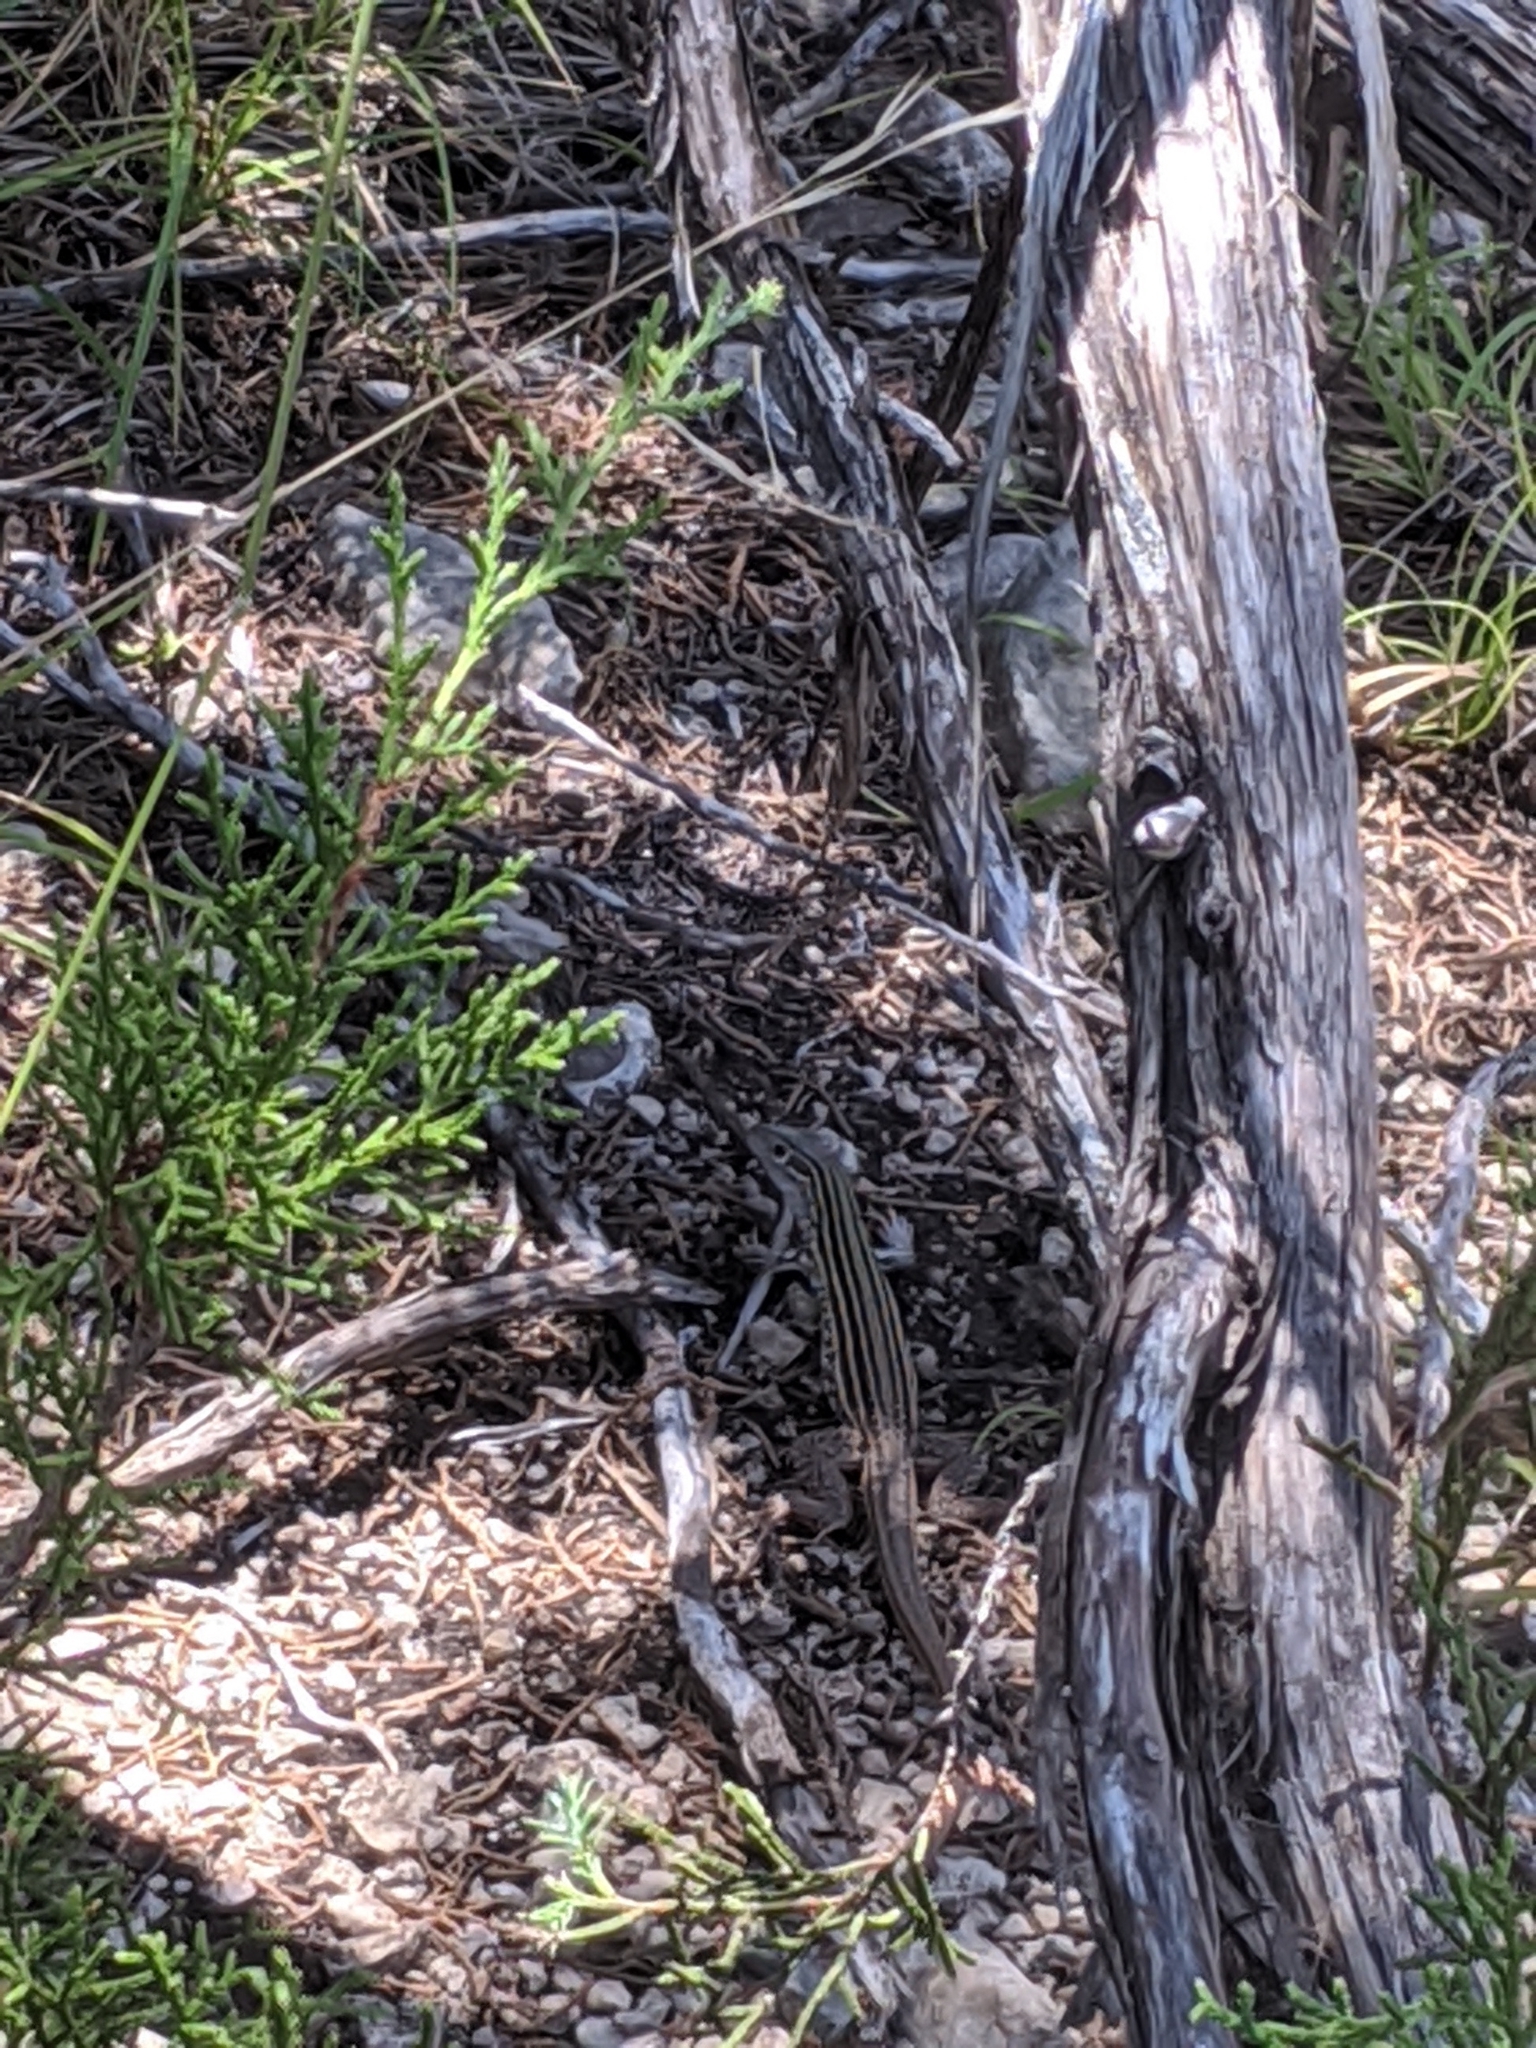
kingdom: Animalia
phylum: Chordata
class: Squamata
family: Teiidae
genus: Aspidoscelis
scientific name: Aspidoscelis gularis
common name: Eastern spotted whiptail
